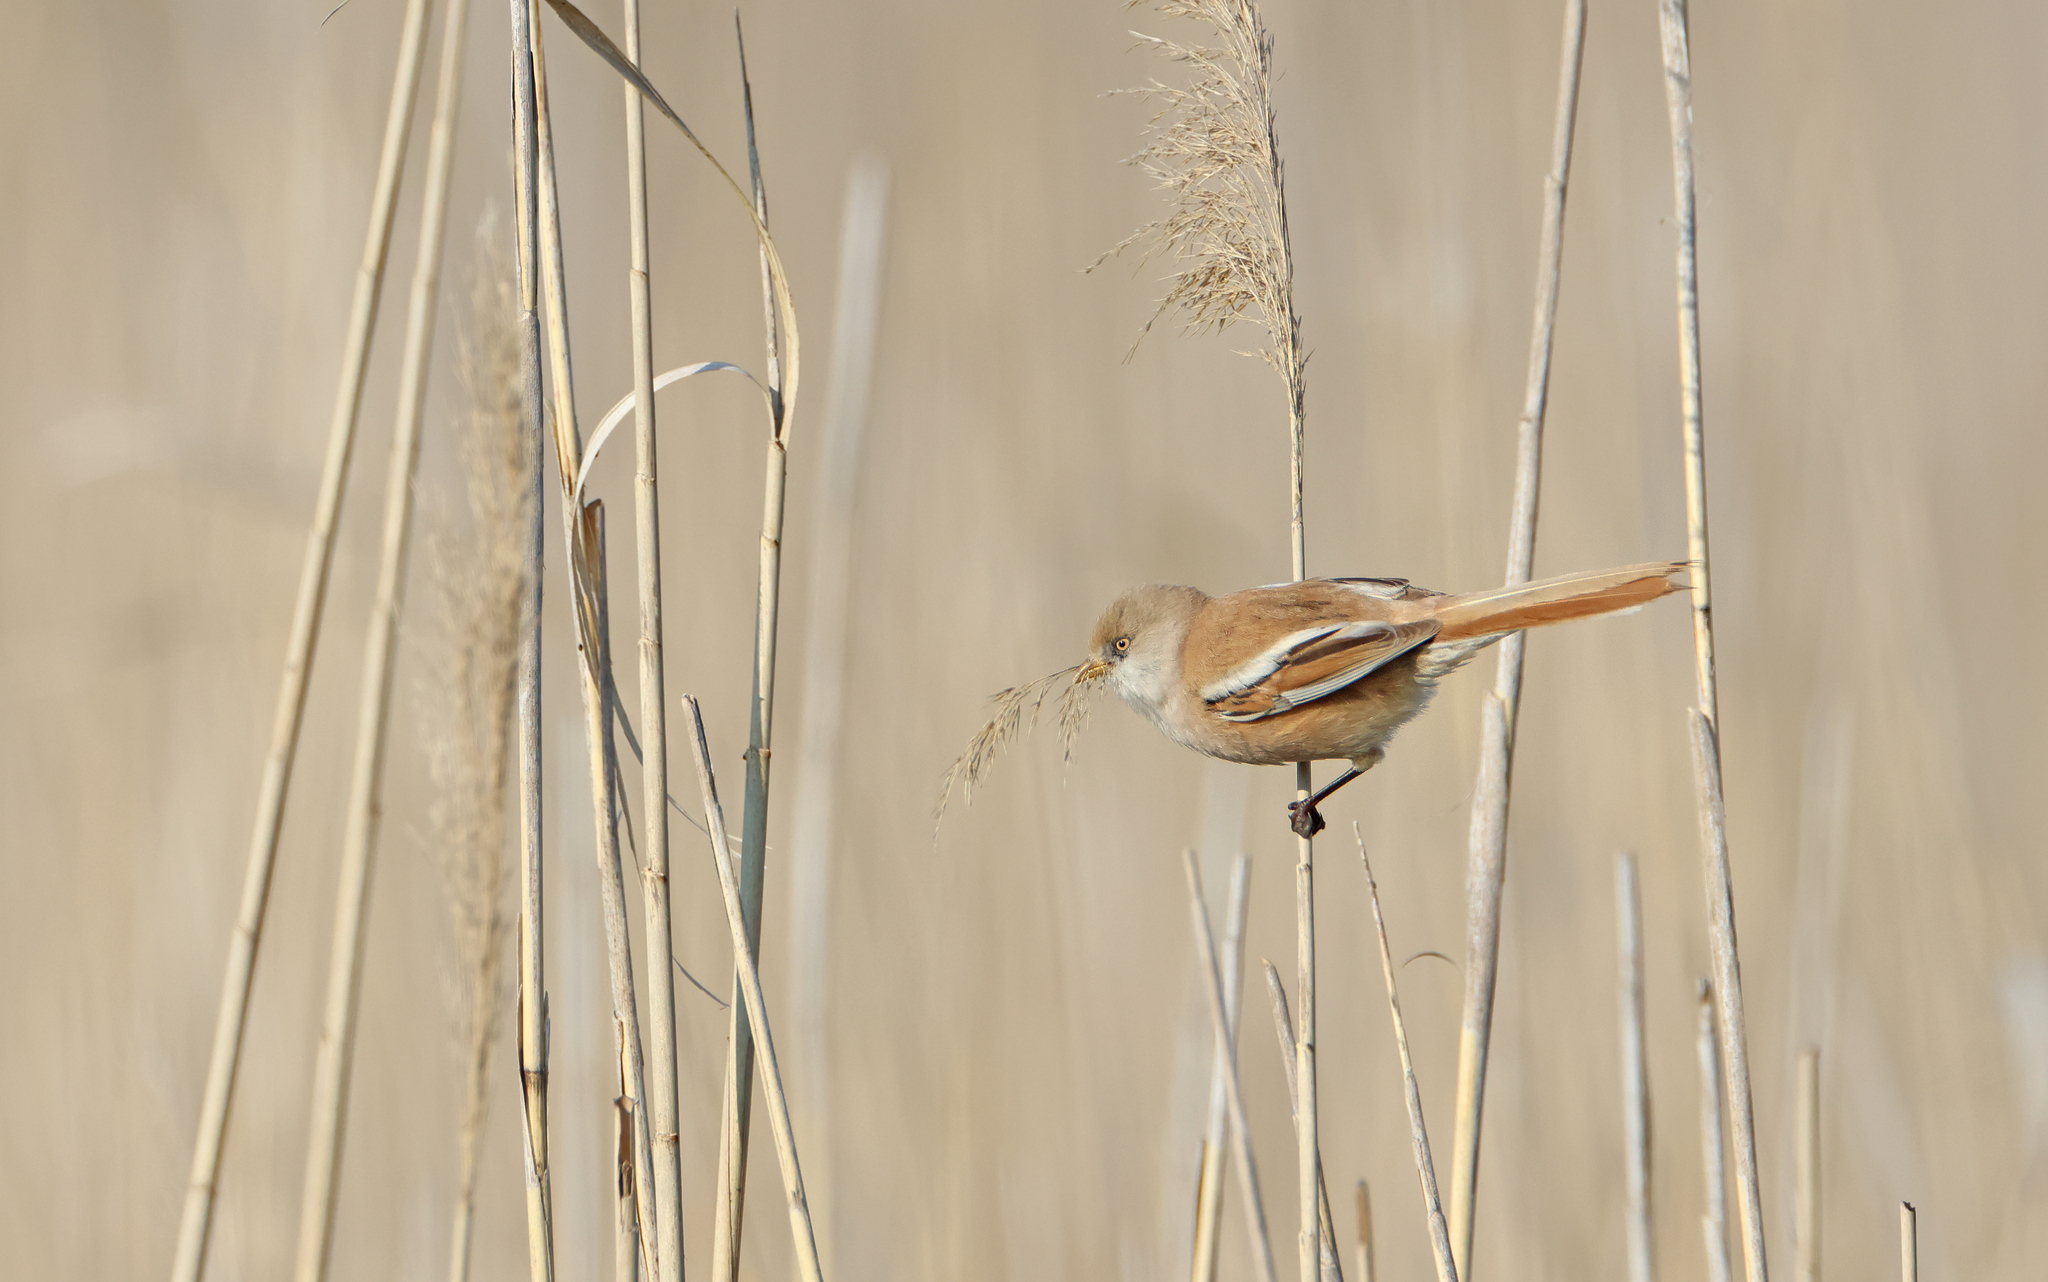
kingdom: Animalia
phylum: Chordata
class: Aves
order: Passeriformes
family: Panuridae
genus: Panurus
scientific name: Panurus biarmicus
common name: Bearded reedling
